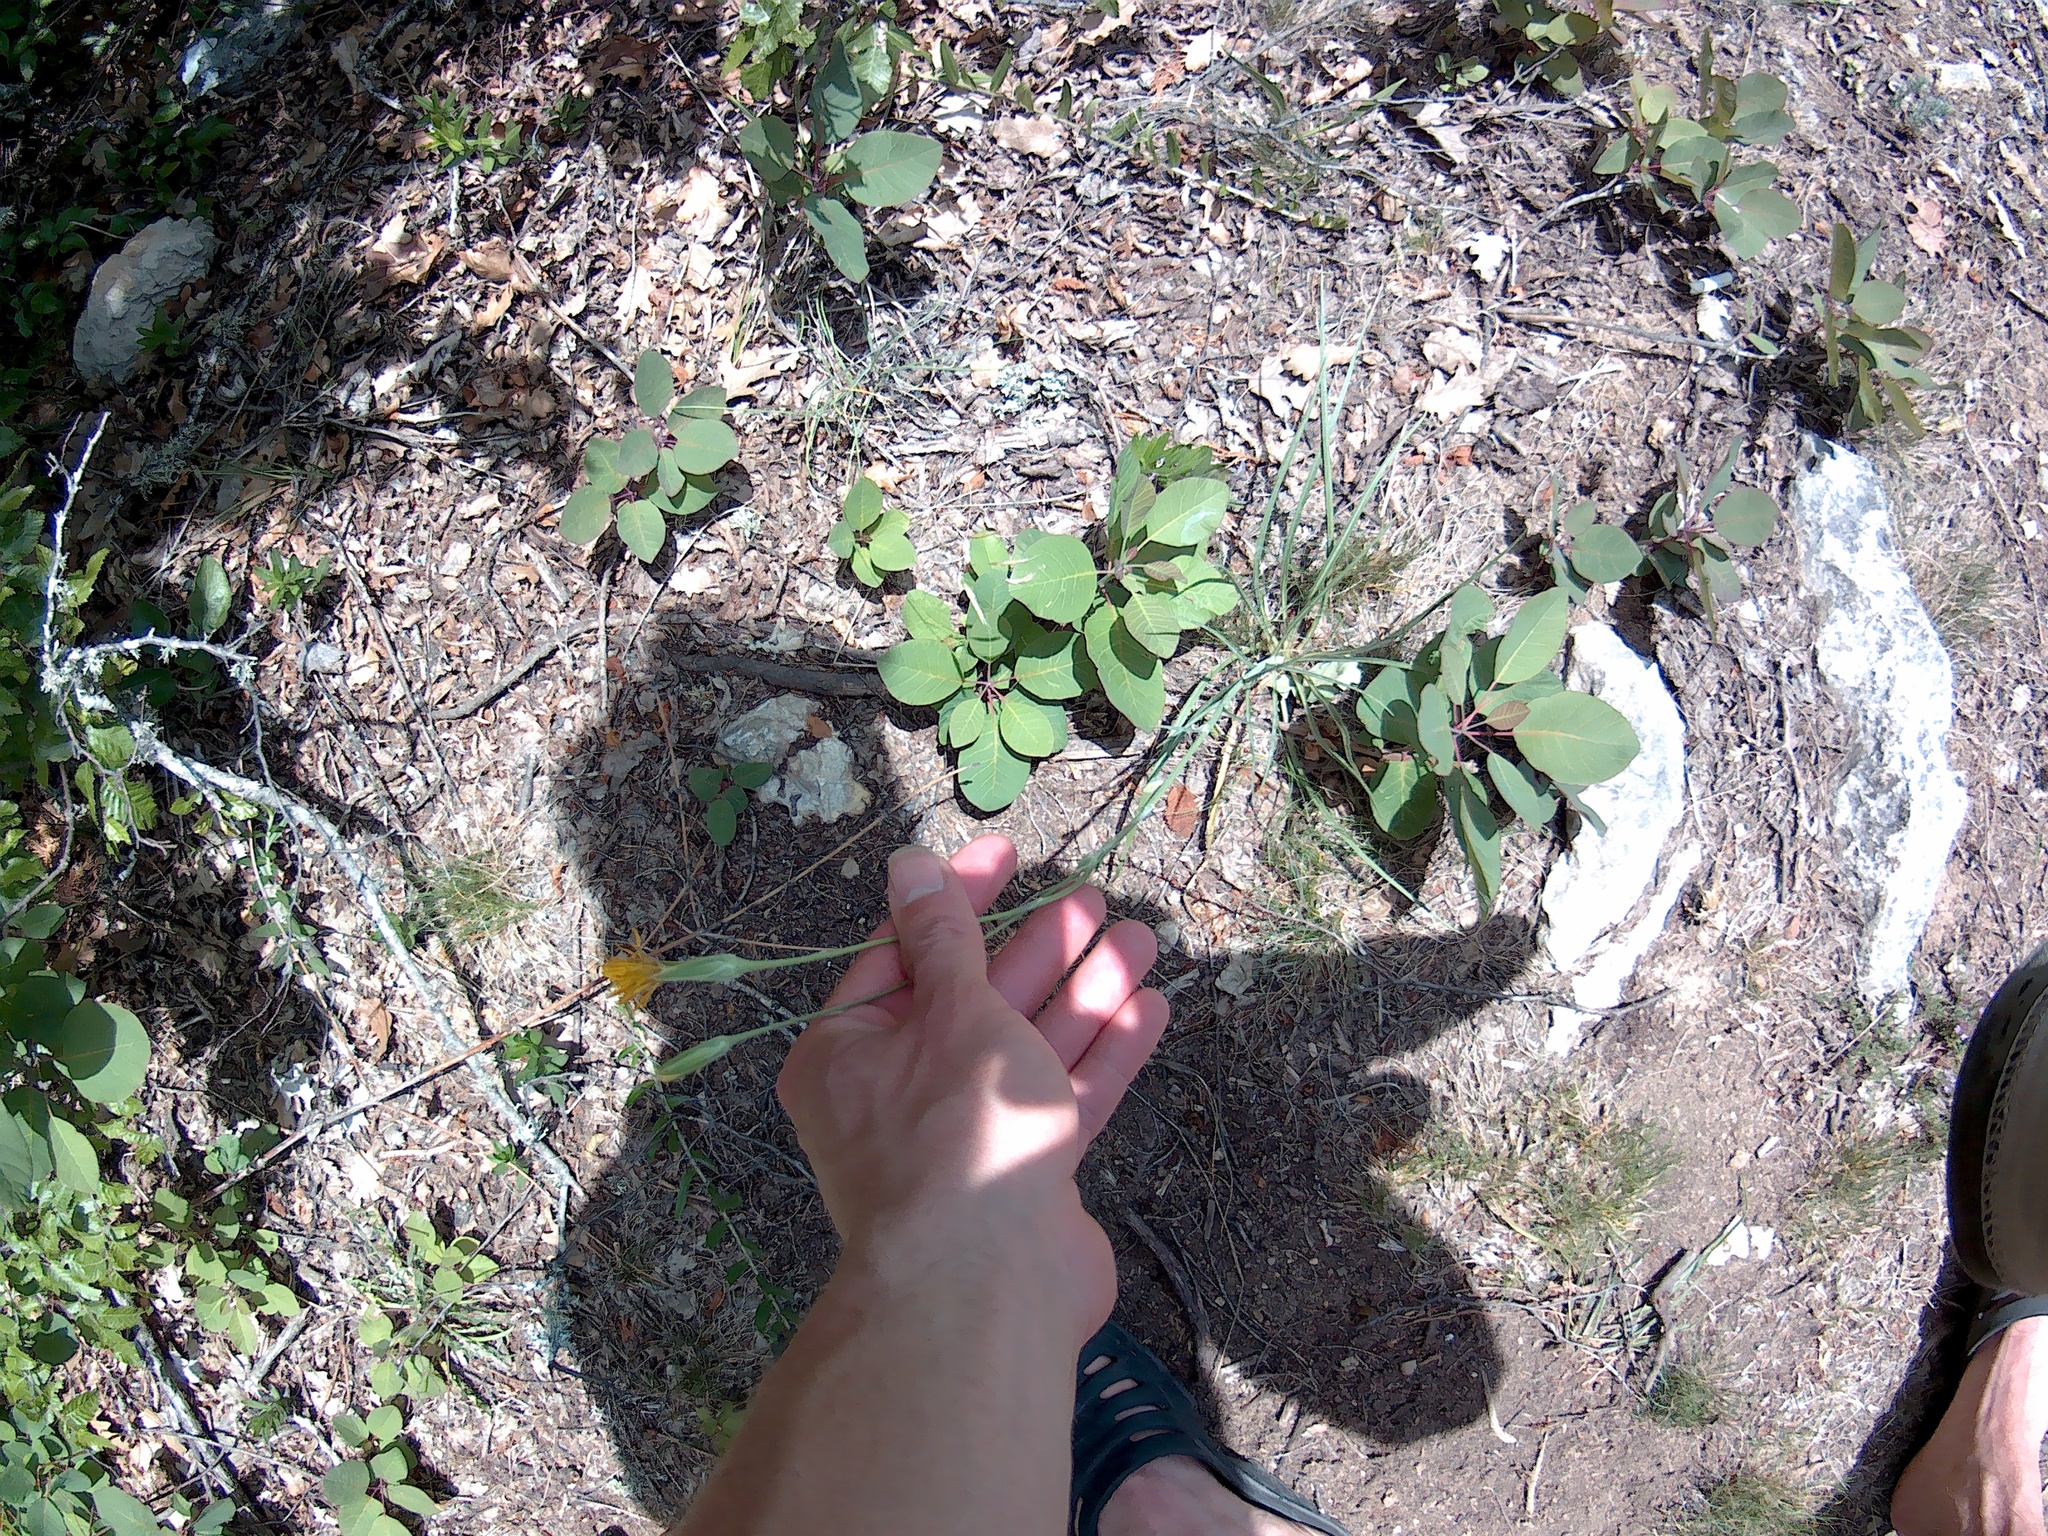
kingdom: Plantae
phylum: Tracheophyta
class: Magnoliopsida
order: Asterales
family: Asteraceae
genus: Pseudopodospermum
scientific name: Pseudopodospermum strictum
